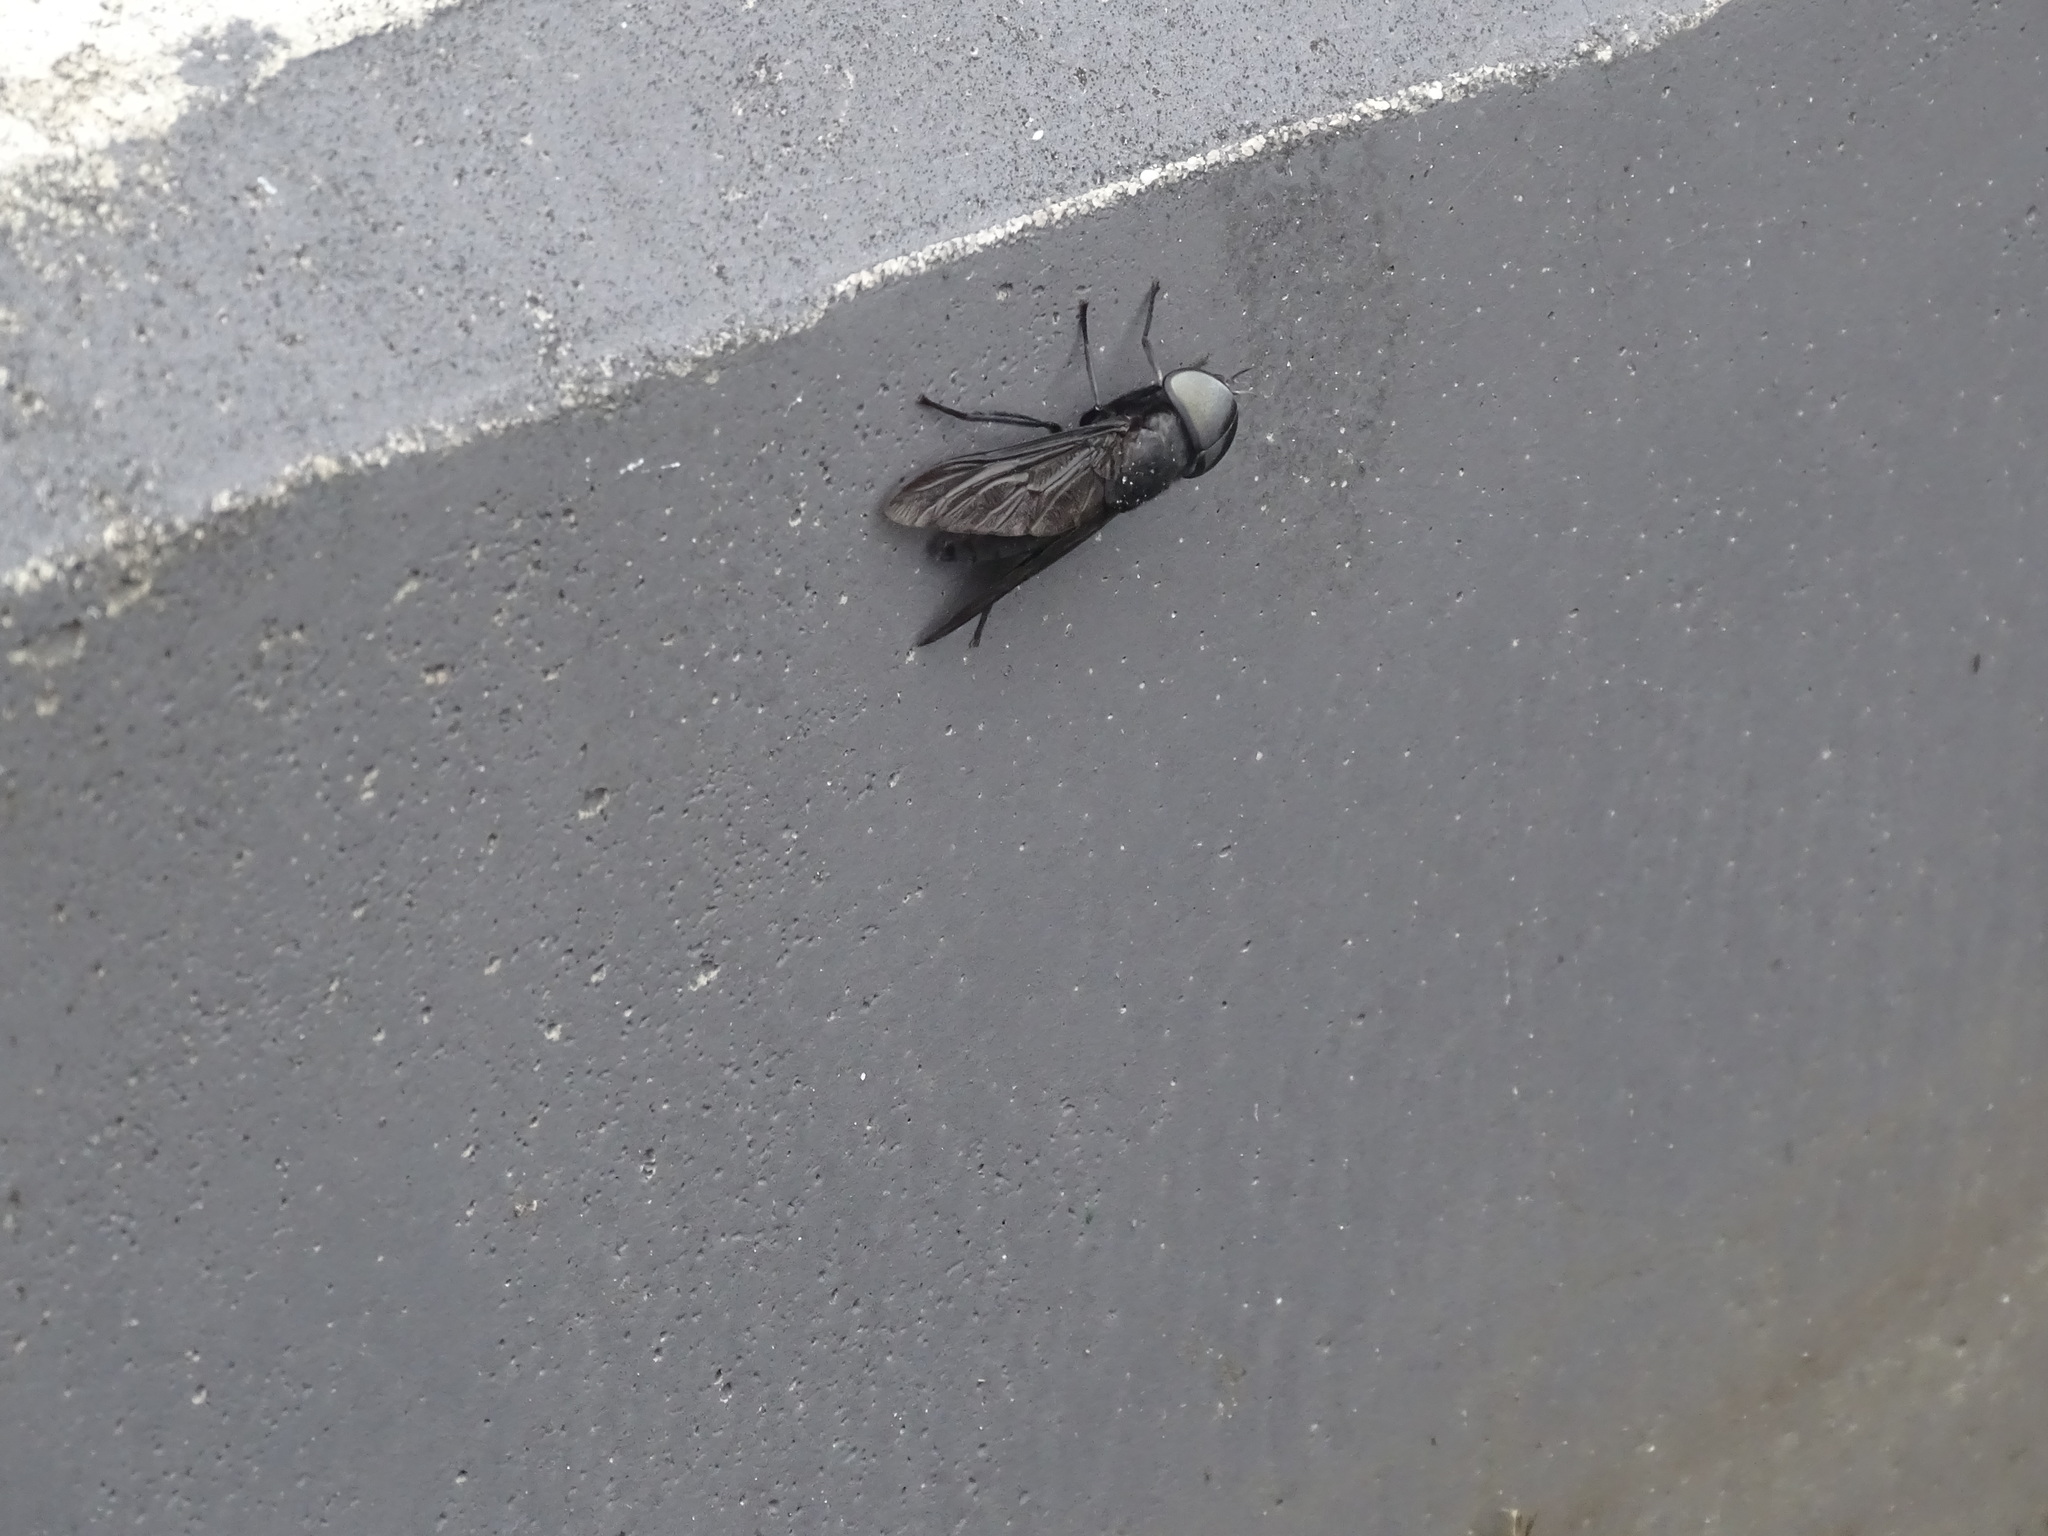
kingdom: Animalia
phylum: Arthropoda
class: Insecta
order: Diptera
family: Tabanidae
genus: Tabanus
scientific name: Tabanus atratus
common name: Black horse fly
